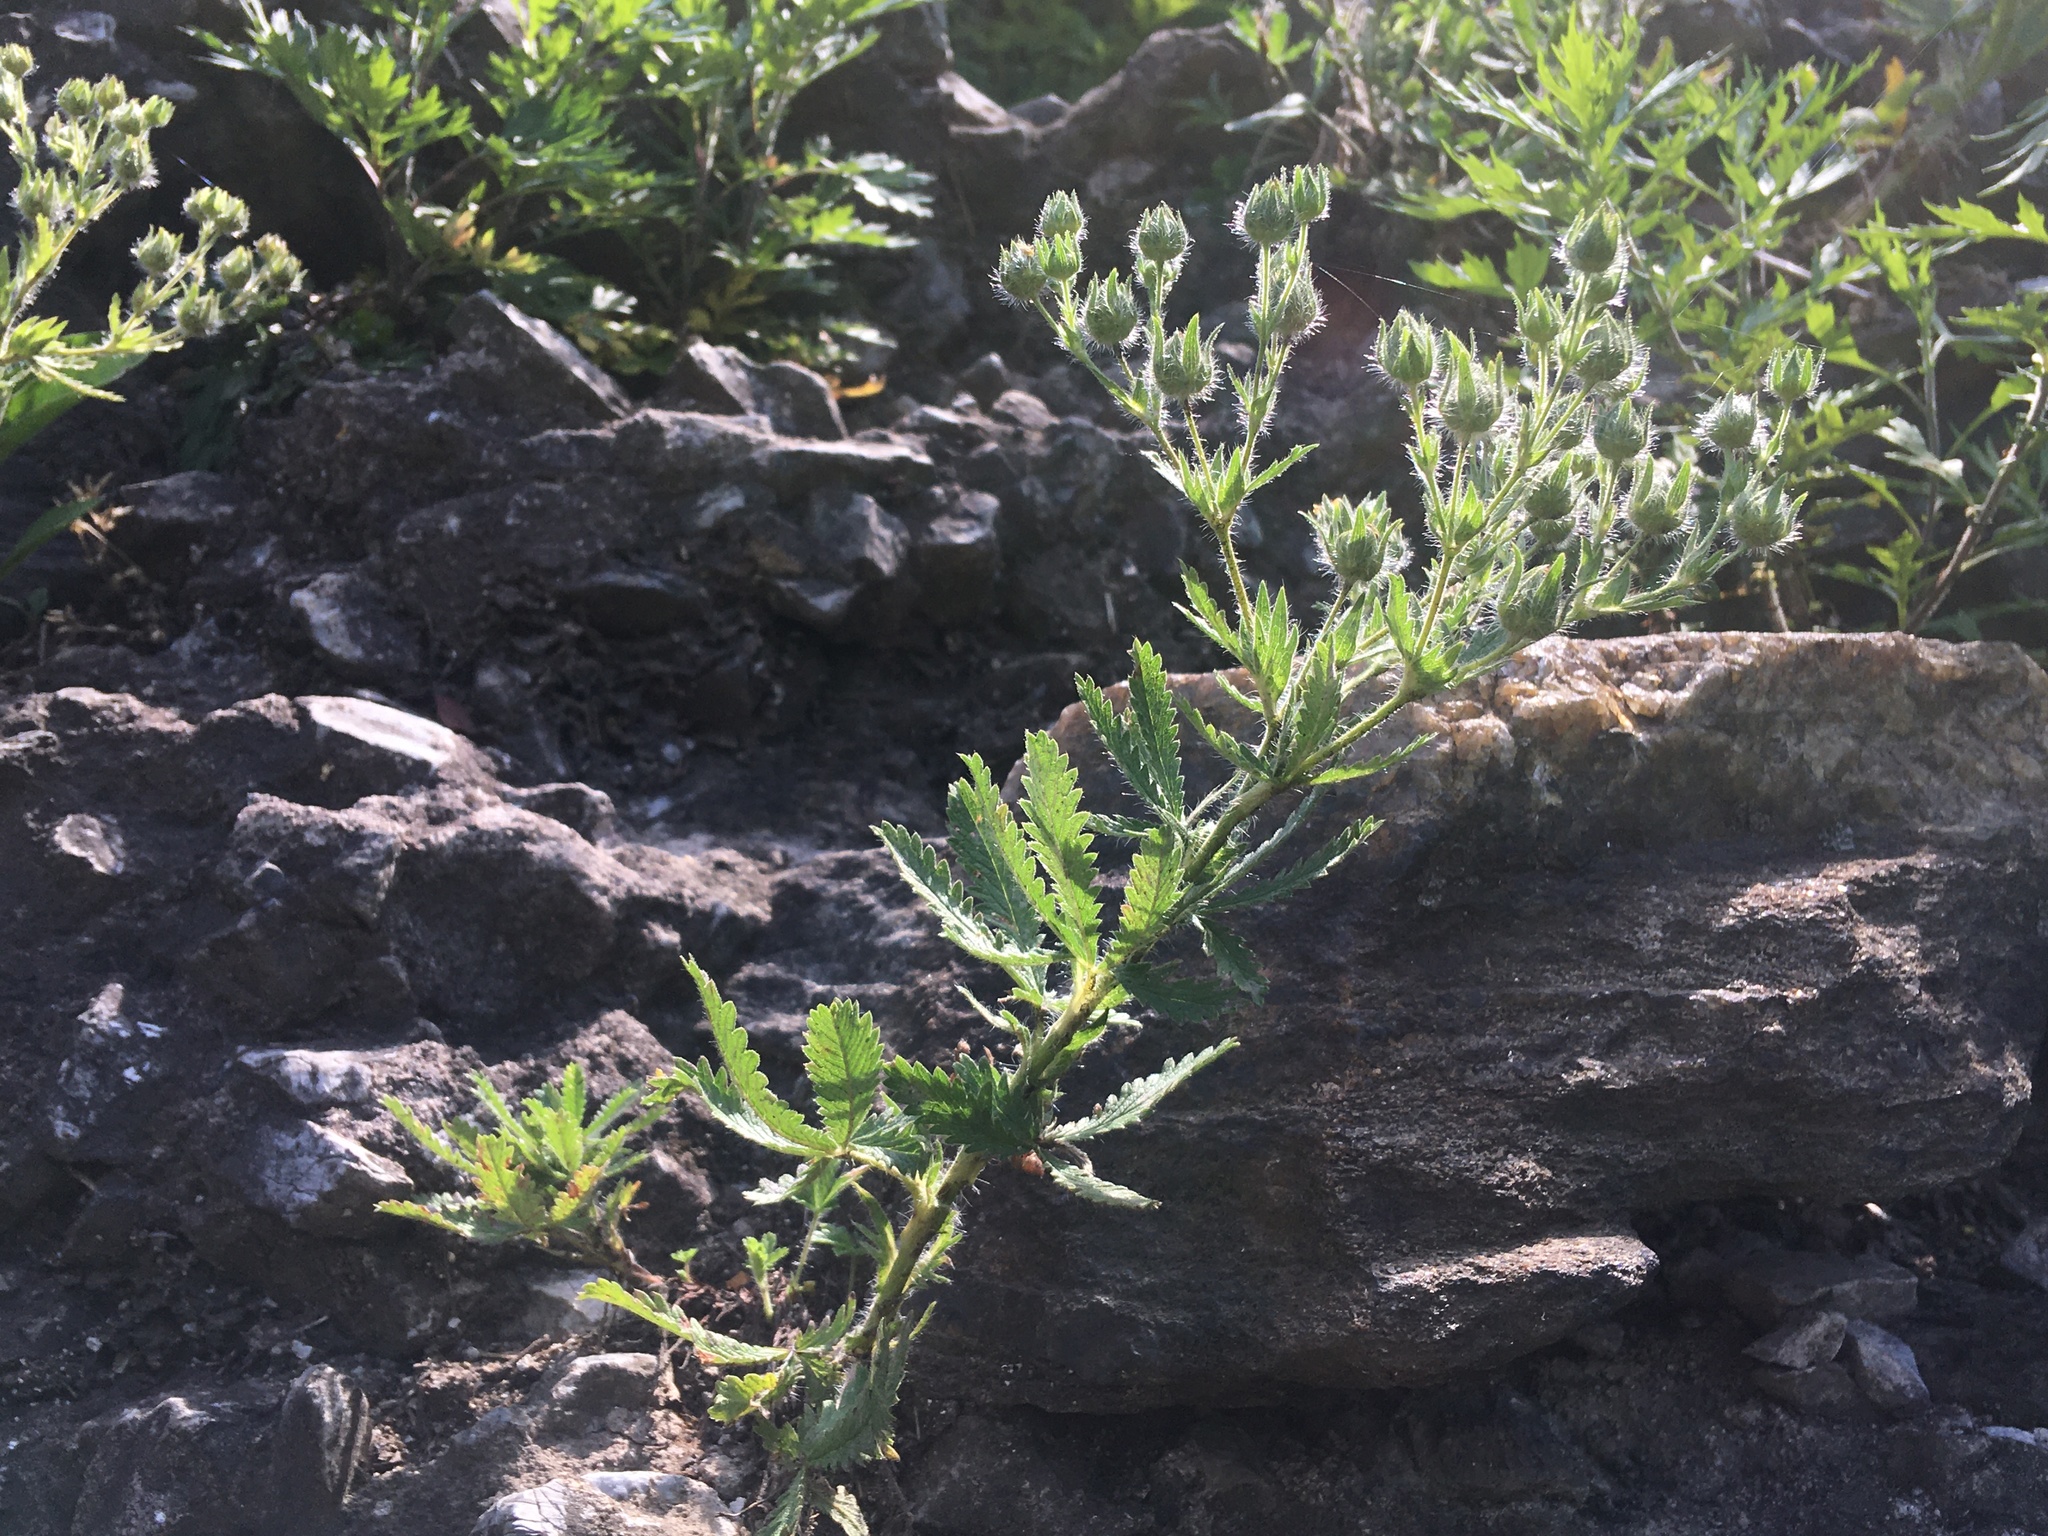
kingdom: Plantae
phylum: Tracheophyta
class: Magnoliopsida
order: Rosales
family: Rosaceae
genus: Potentilla
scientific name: Potentilla recta
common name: Sulphur cinquefoil
